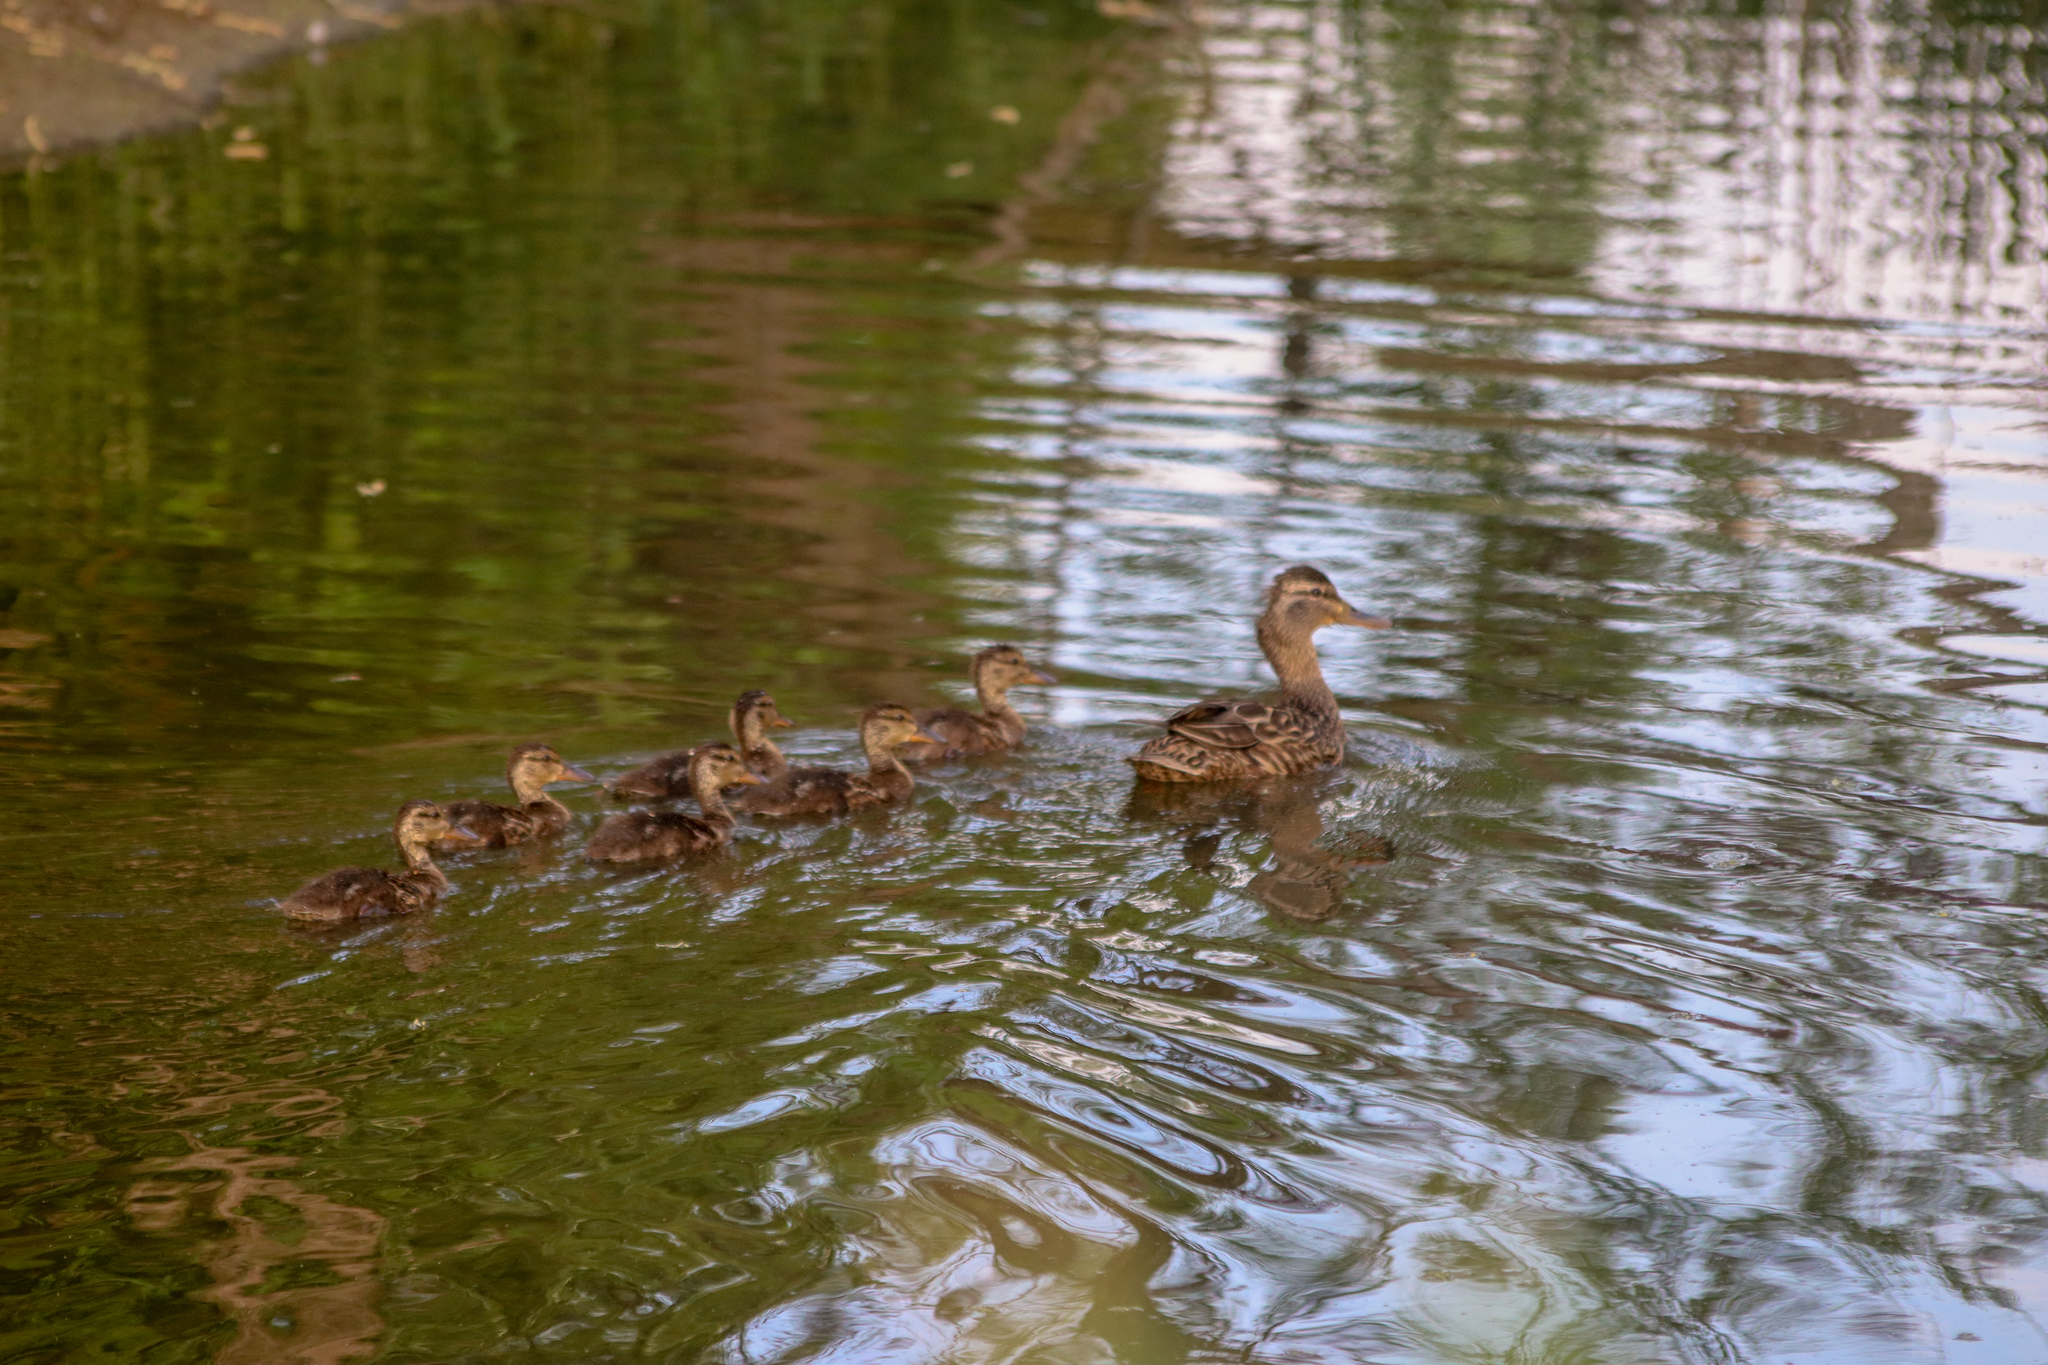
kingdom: Animalia
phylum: Chordata
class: Aves
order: Anseriformes
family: Anatidae
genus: Anas
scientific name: Anas platyrhynchos
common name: Mallard
